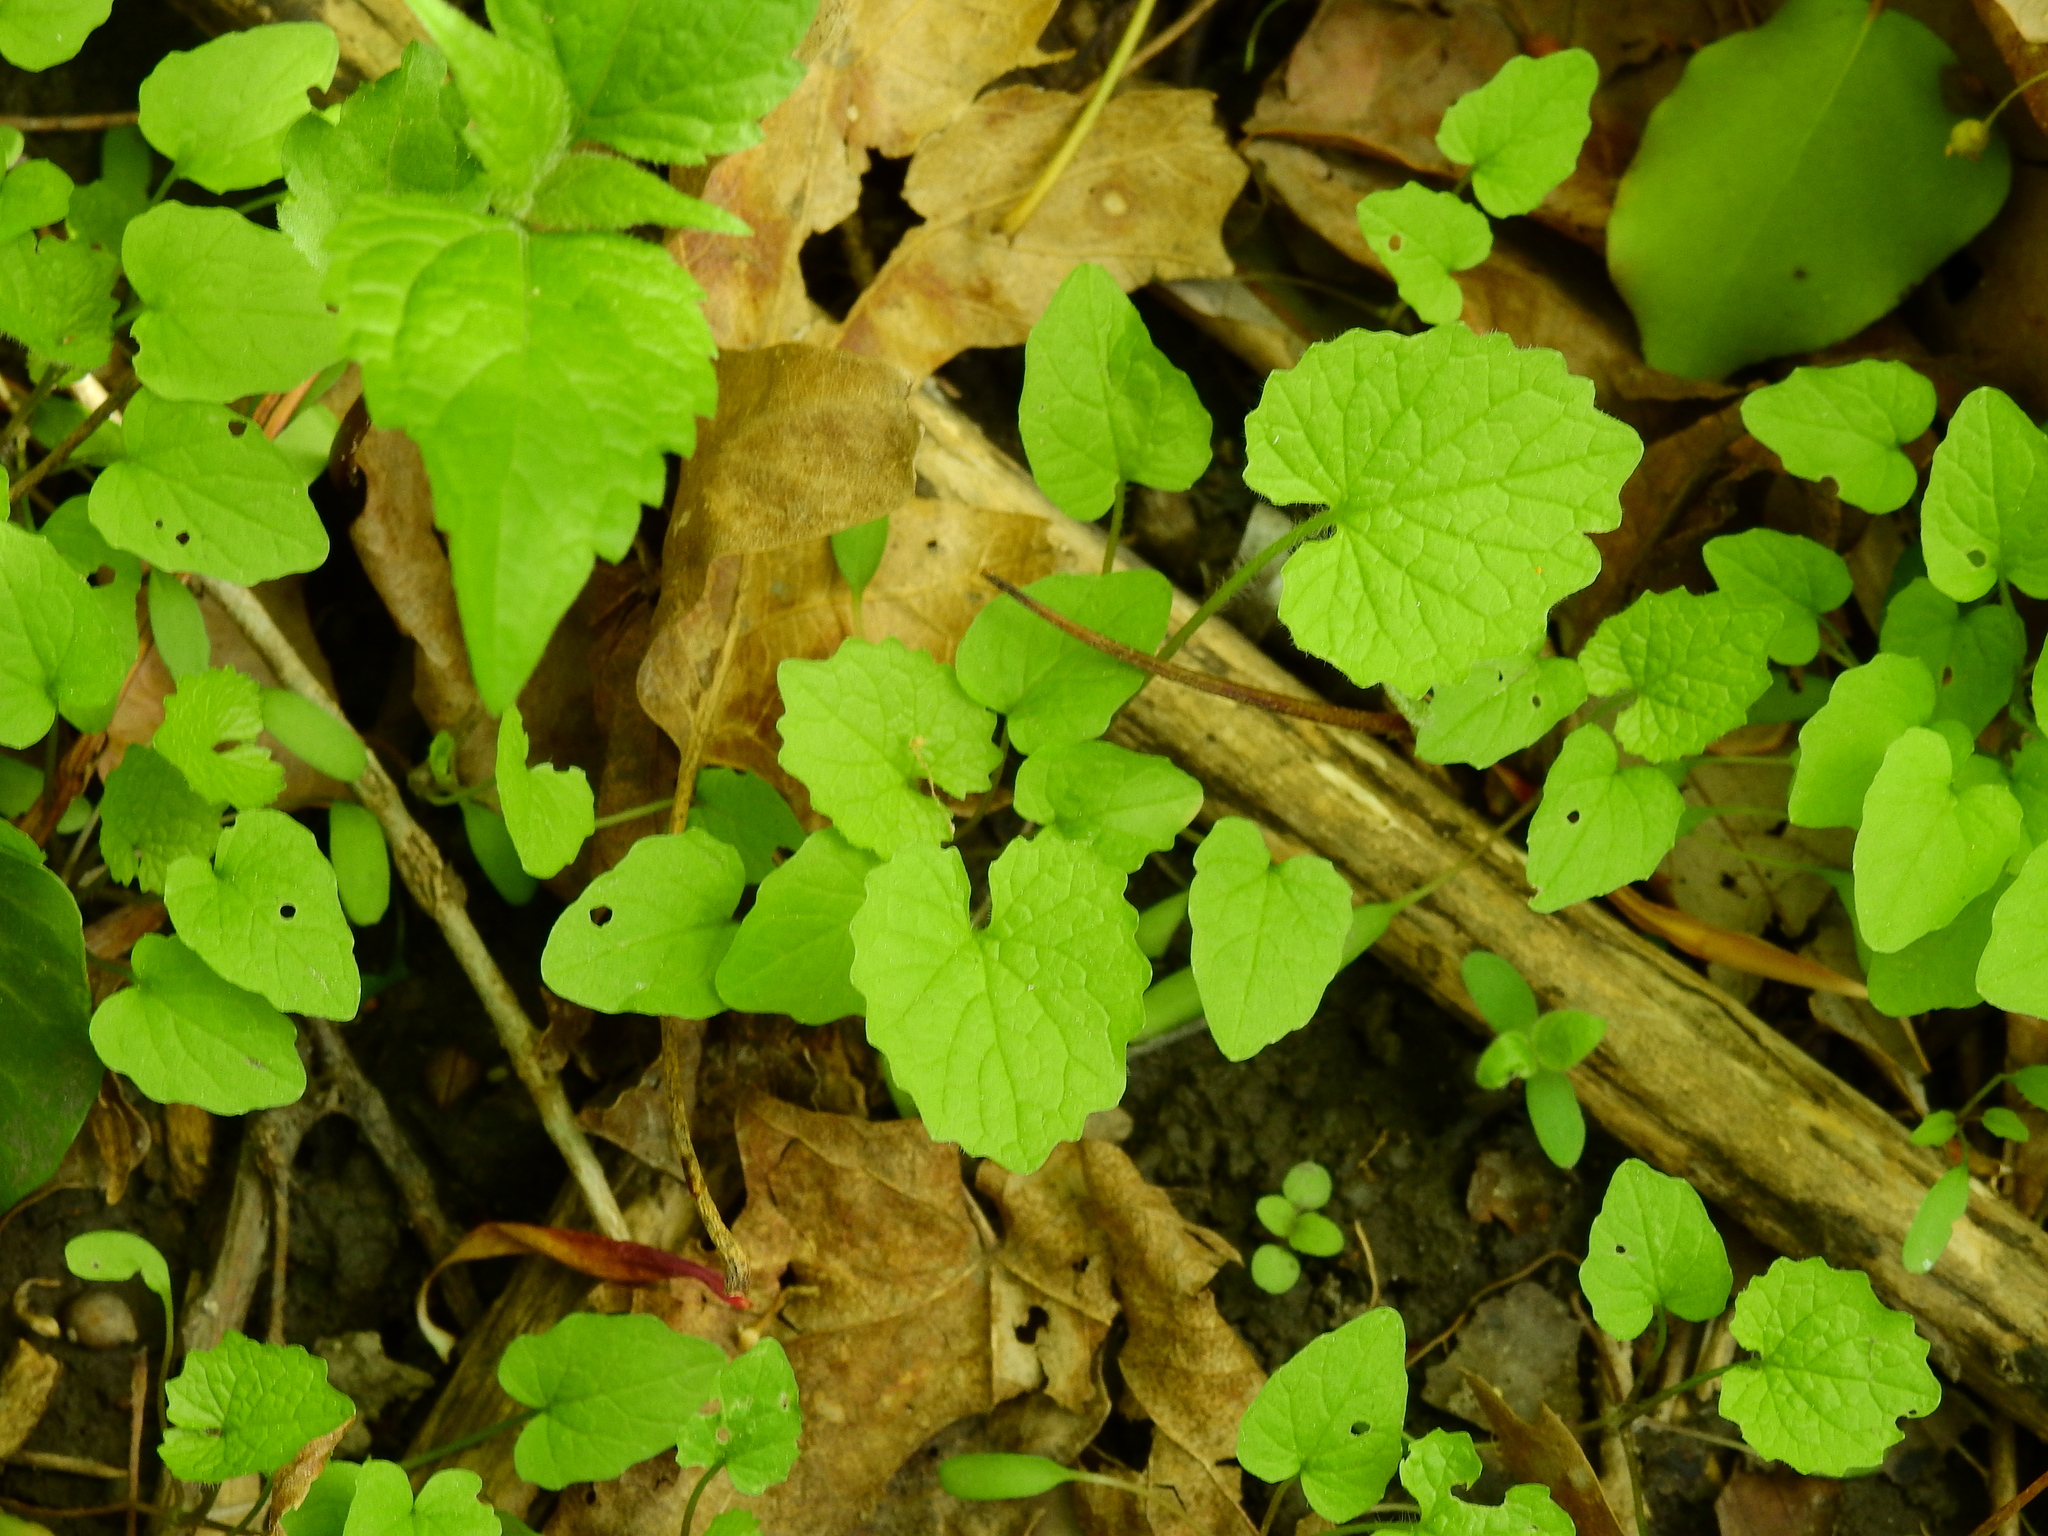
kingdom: Plantae
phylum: Tracheophyta
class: Magnoliopsida
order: Brassicales
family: Brassicaceae
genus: Alliaria
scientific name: Alliaria petiolata
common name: Garlic mustard
